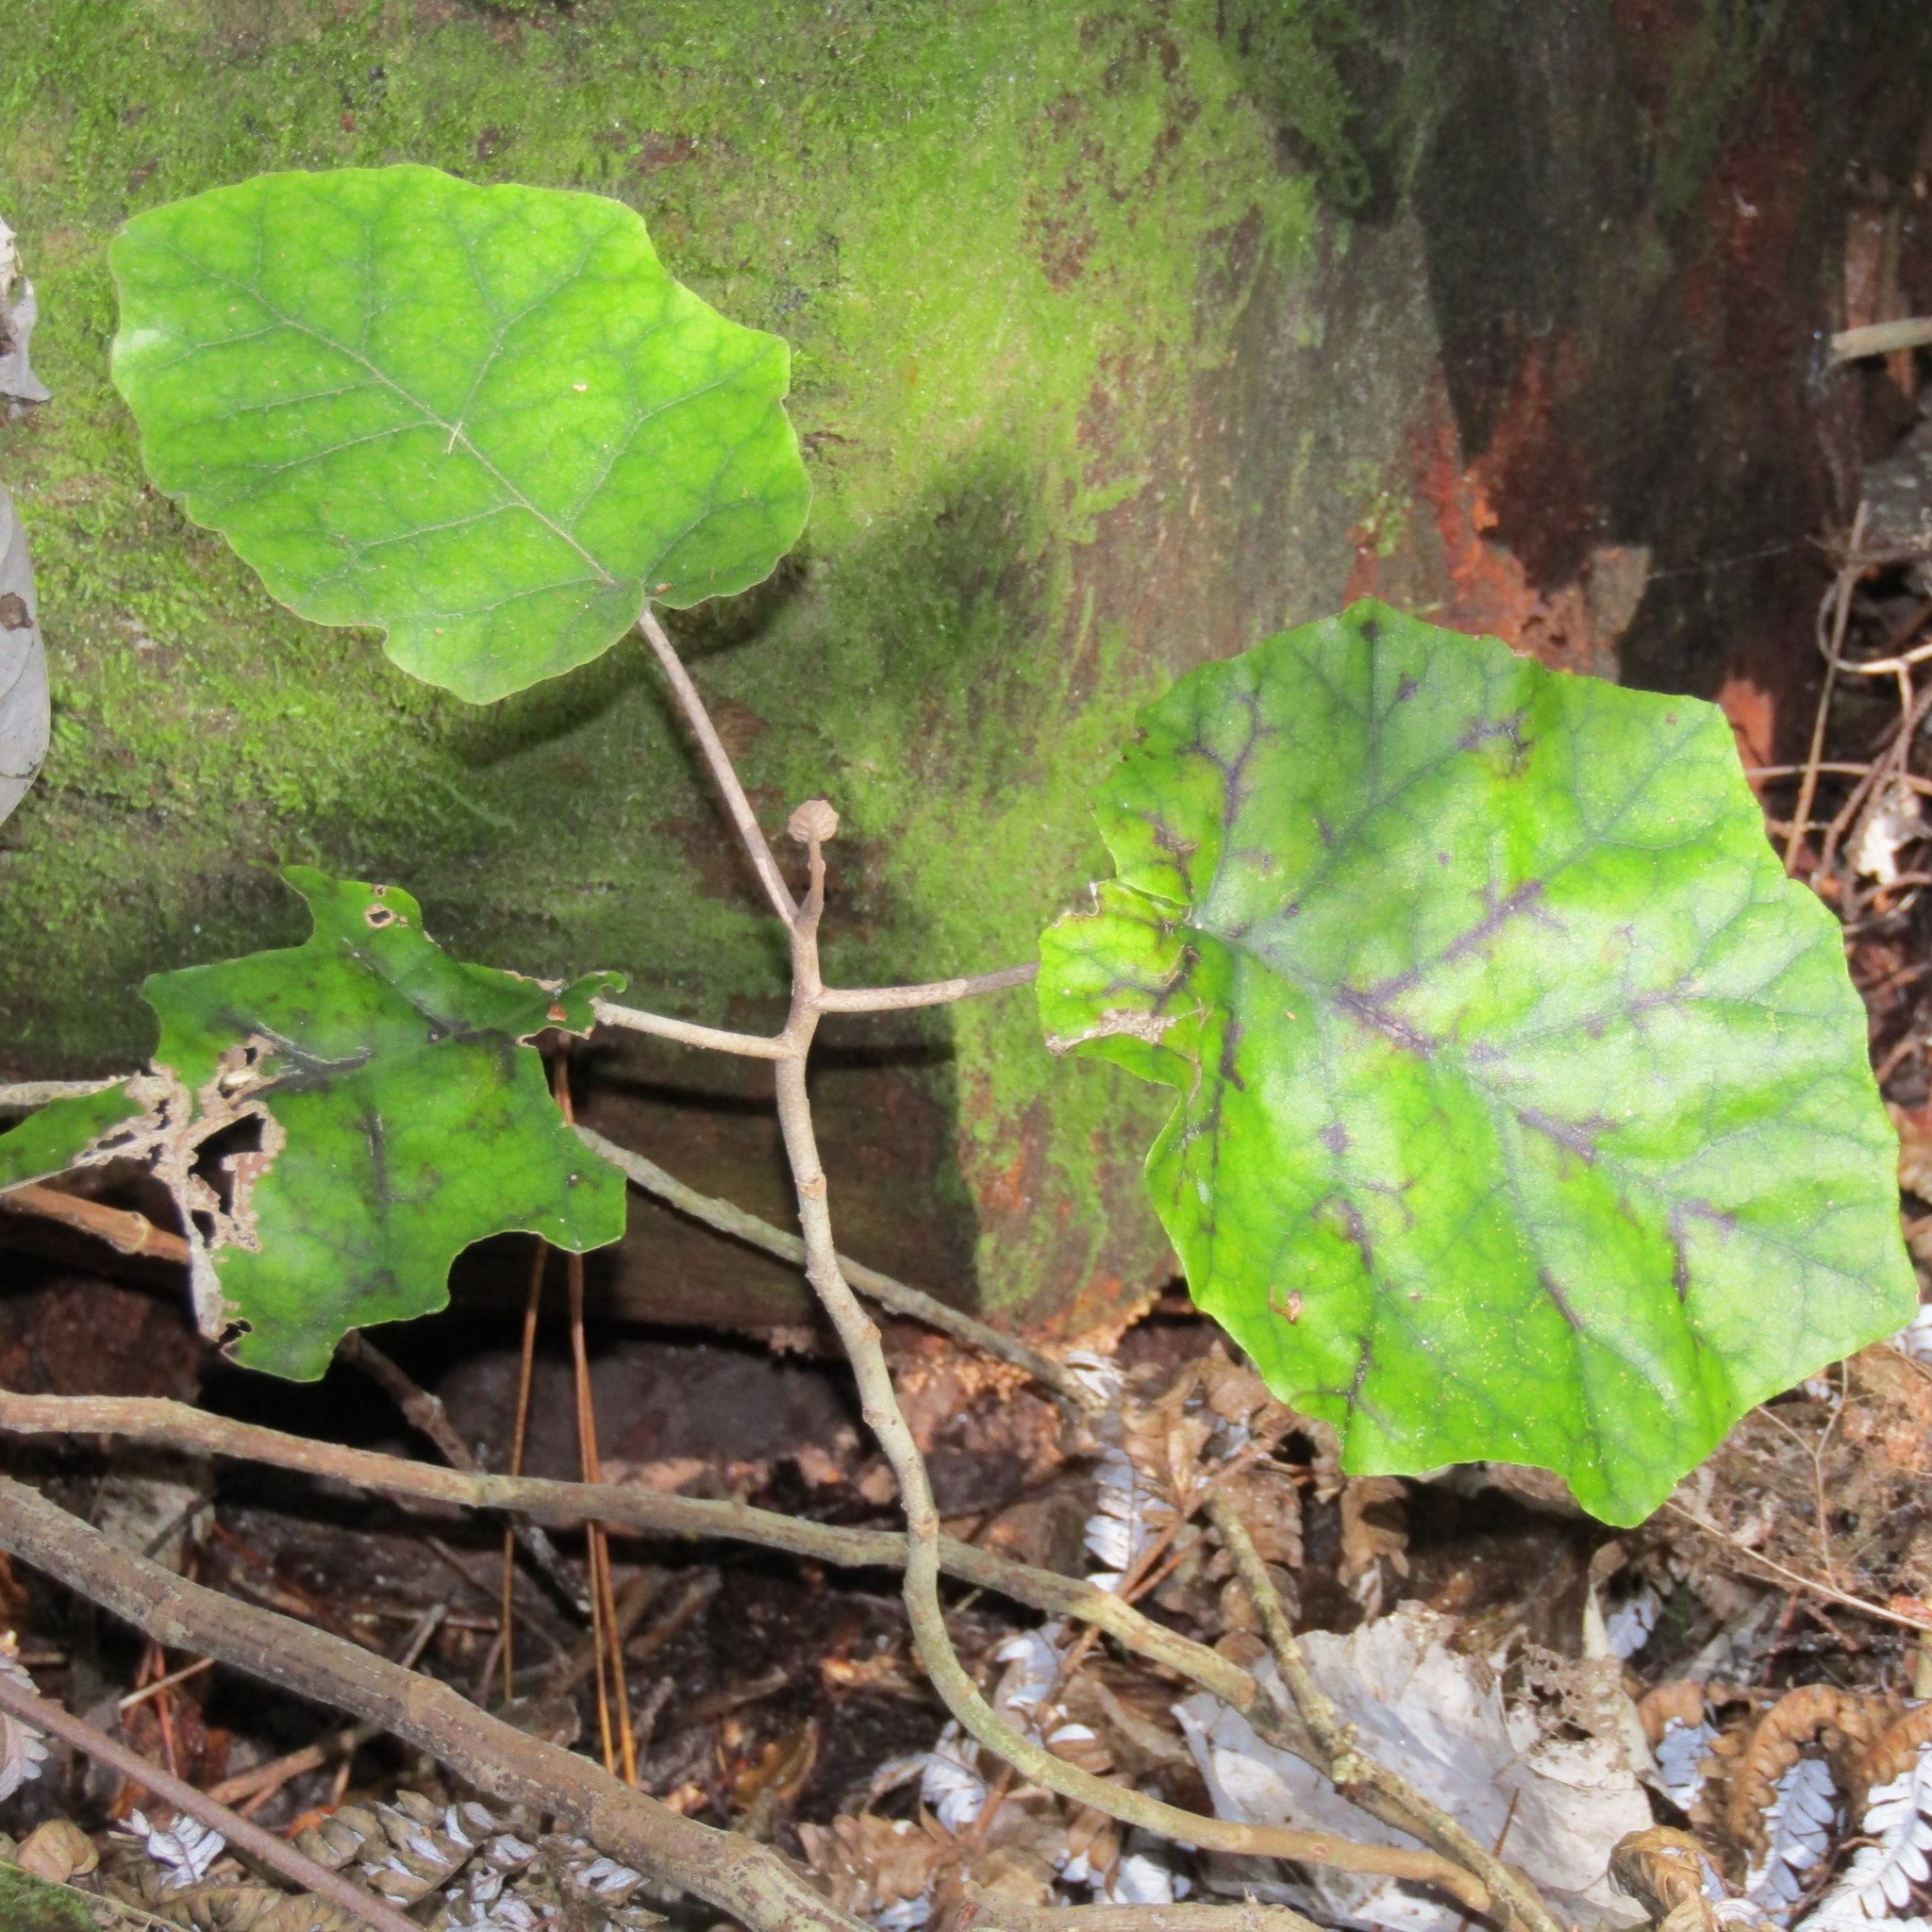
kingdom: Plantae
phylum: Tracheophyta
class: Magnoliopsida
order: Asterales
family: Asteraceae
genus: Brachyglottis
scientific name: Brachyglottis repanda
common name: Hedge ragwort
